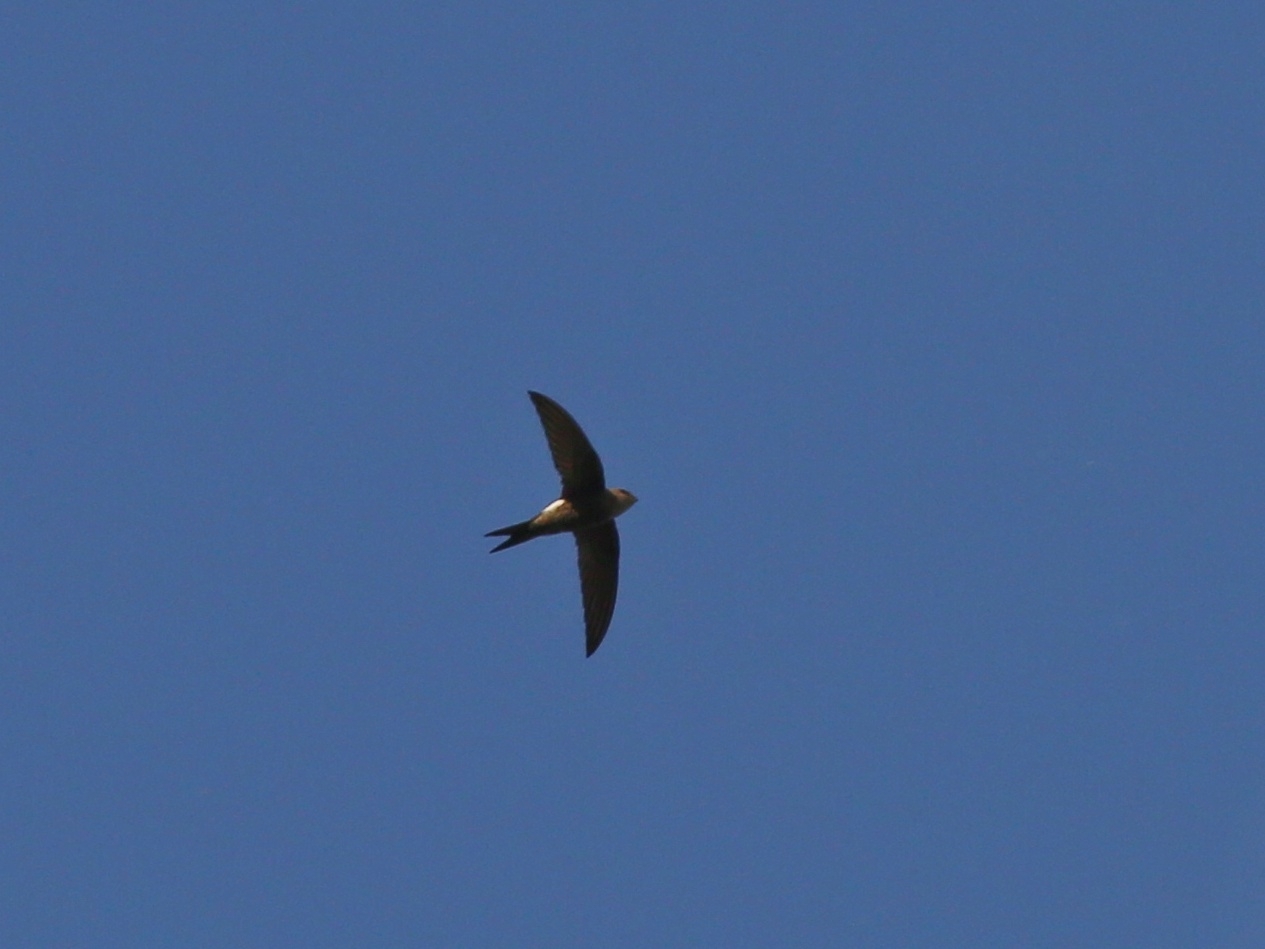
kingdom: Animalia
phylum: Chordata
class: Aves
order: Apodiformes
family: Apodidae
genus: Apus
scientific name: Apus pacificus
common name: Pacific swift
